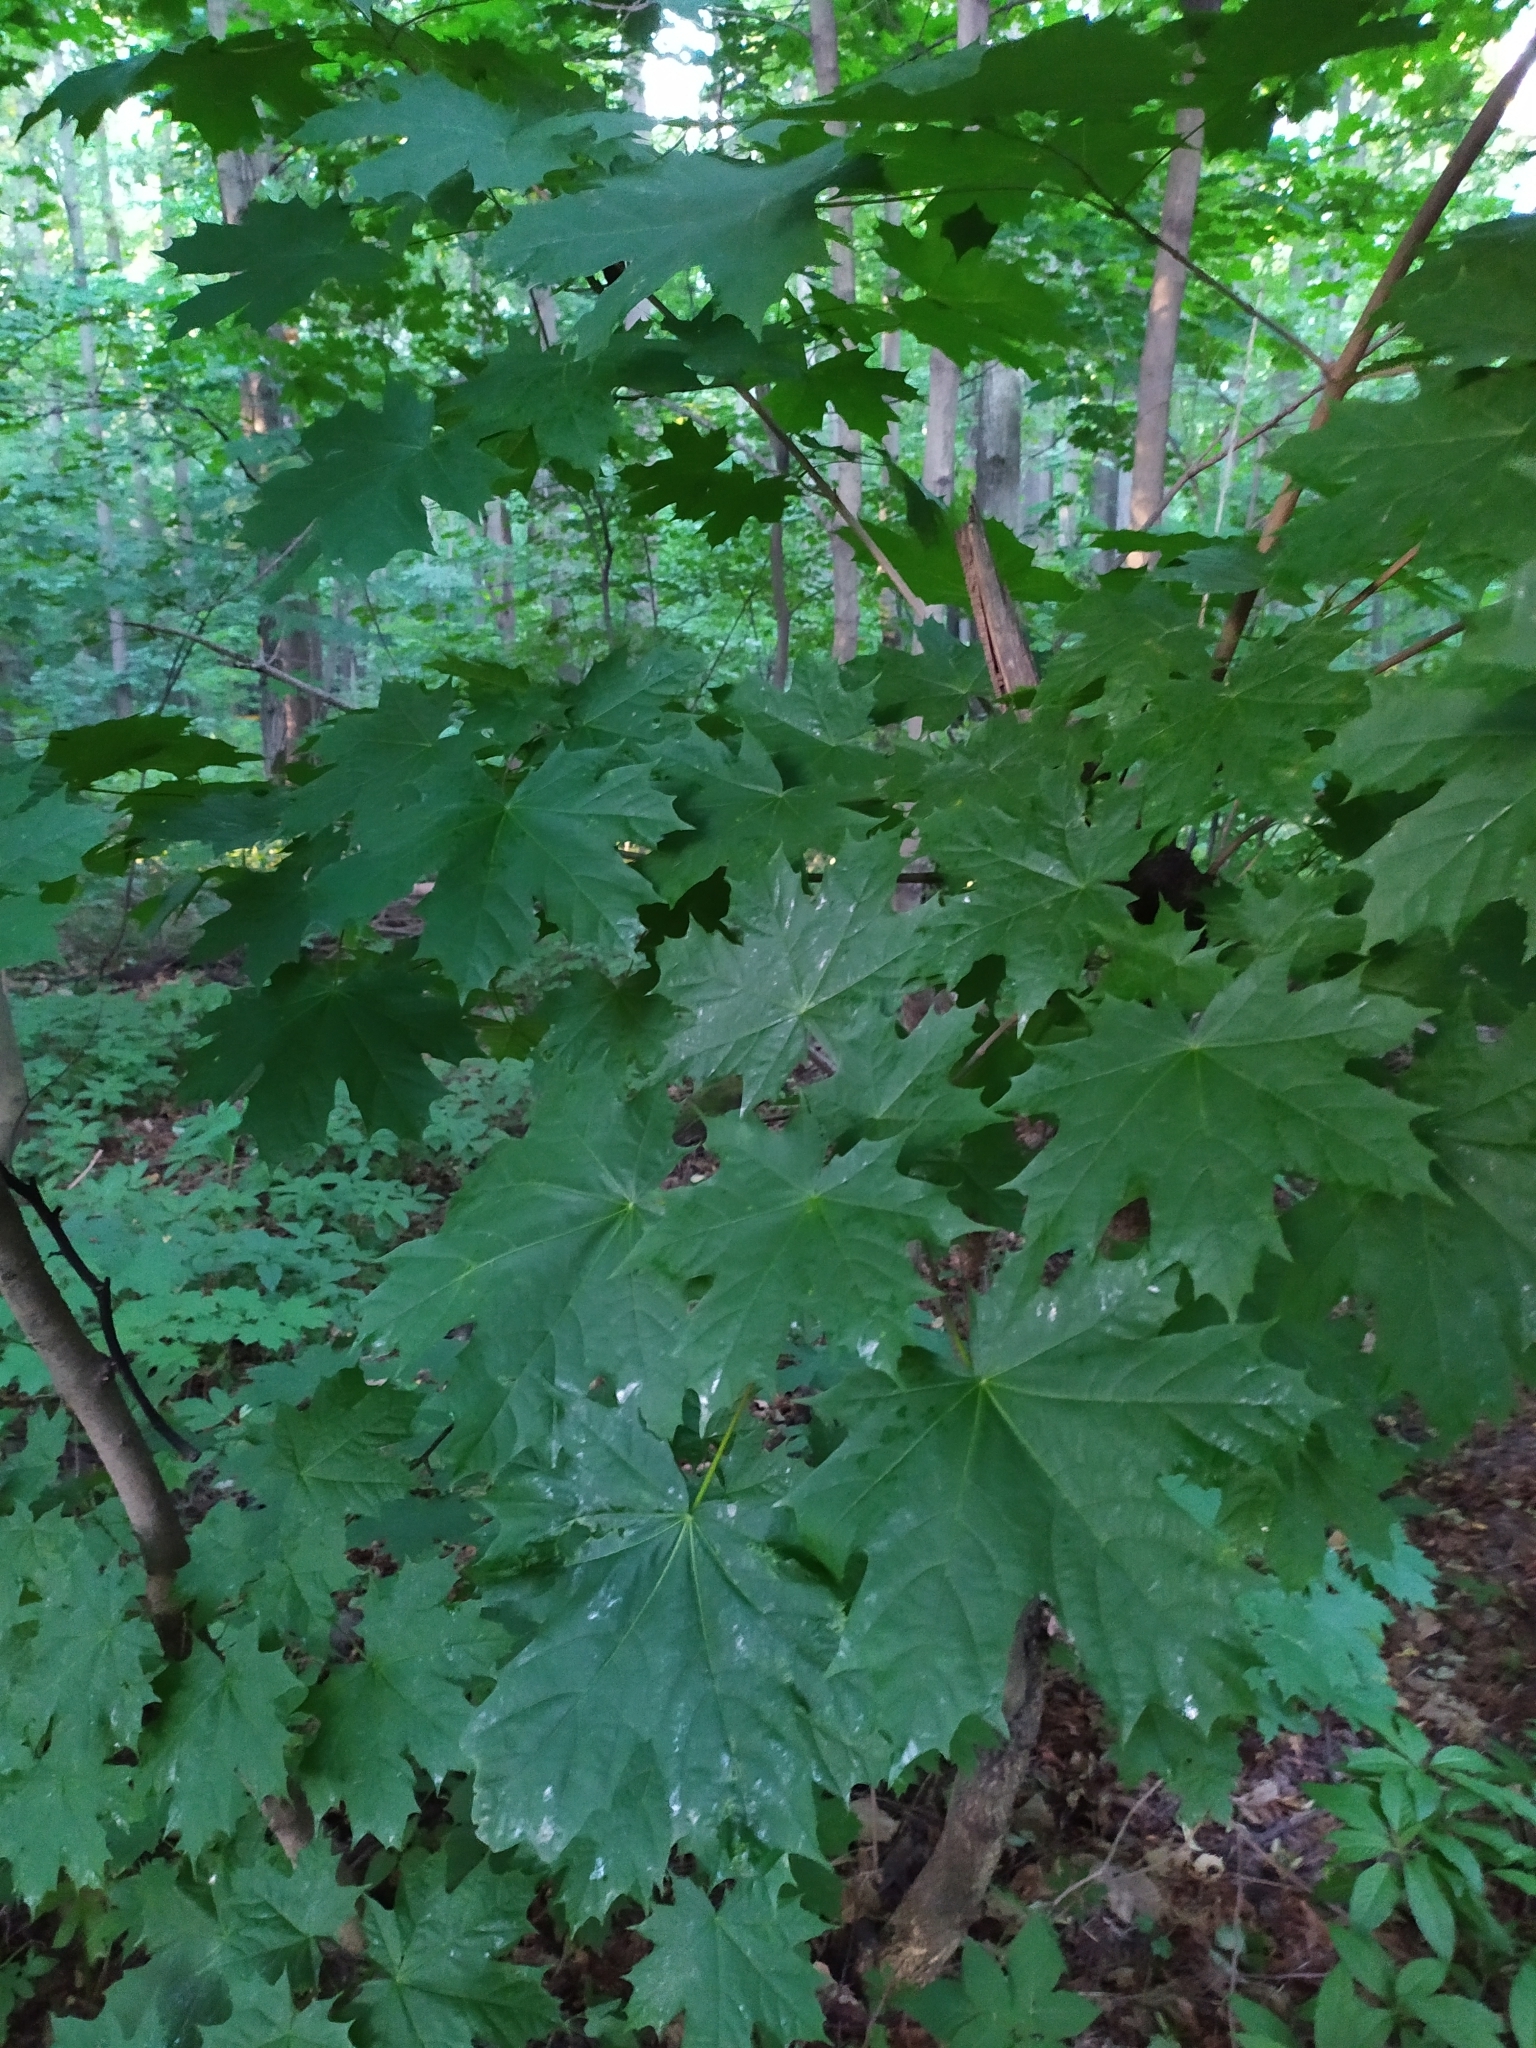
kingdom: Plantae
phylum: Tracheophyta
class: Magnoliopsida
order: Sapindales
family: Sapindaceae
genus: Acer
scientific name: Acer platanoides
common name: Norway maple
